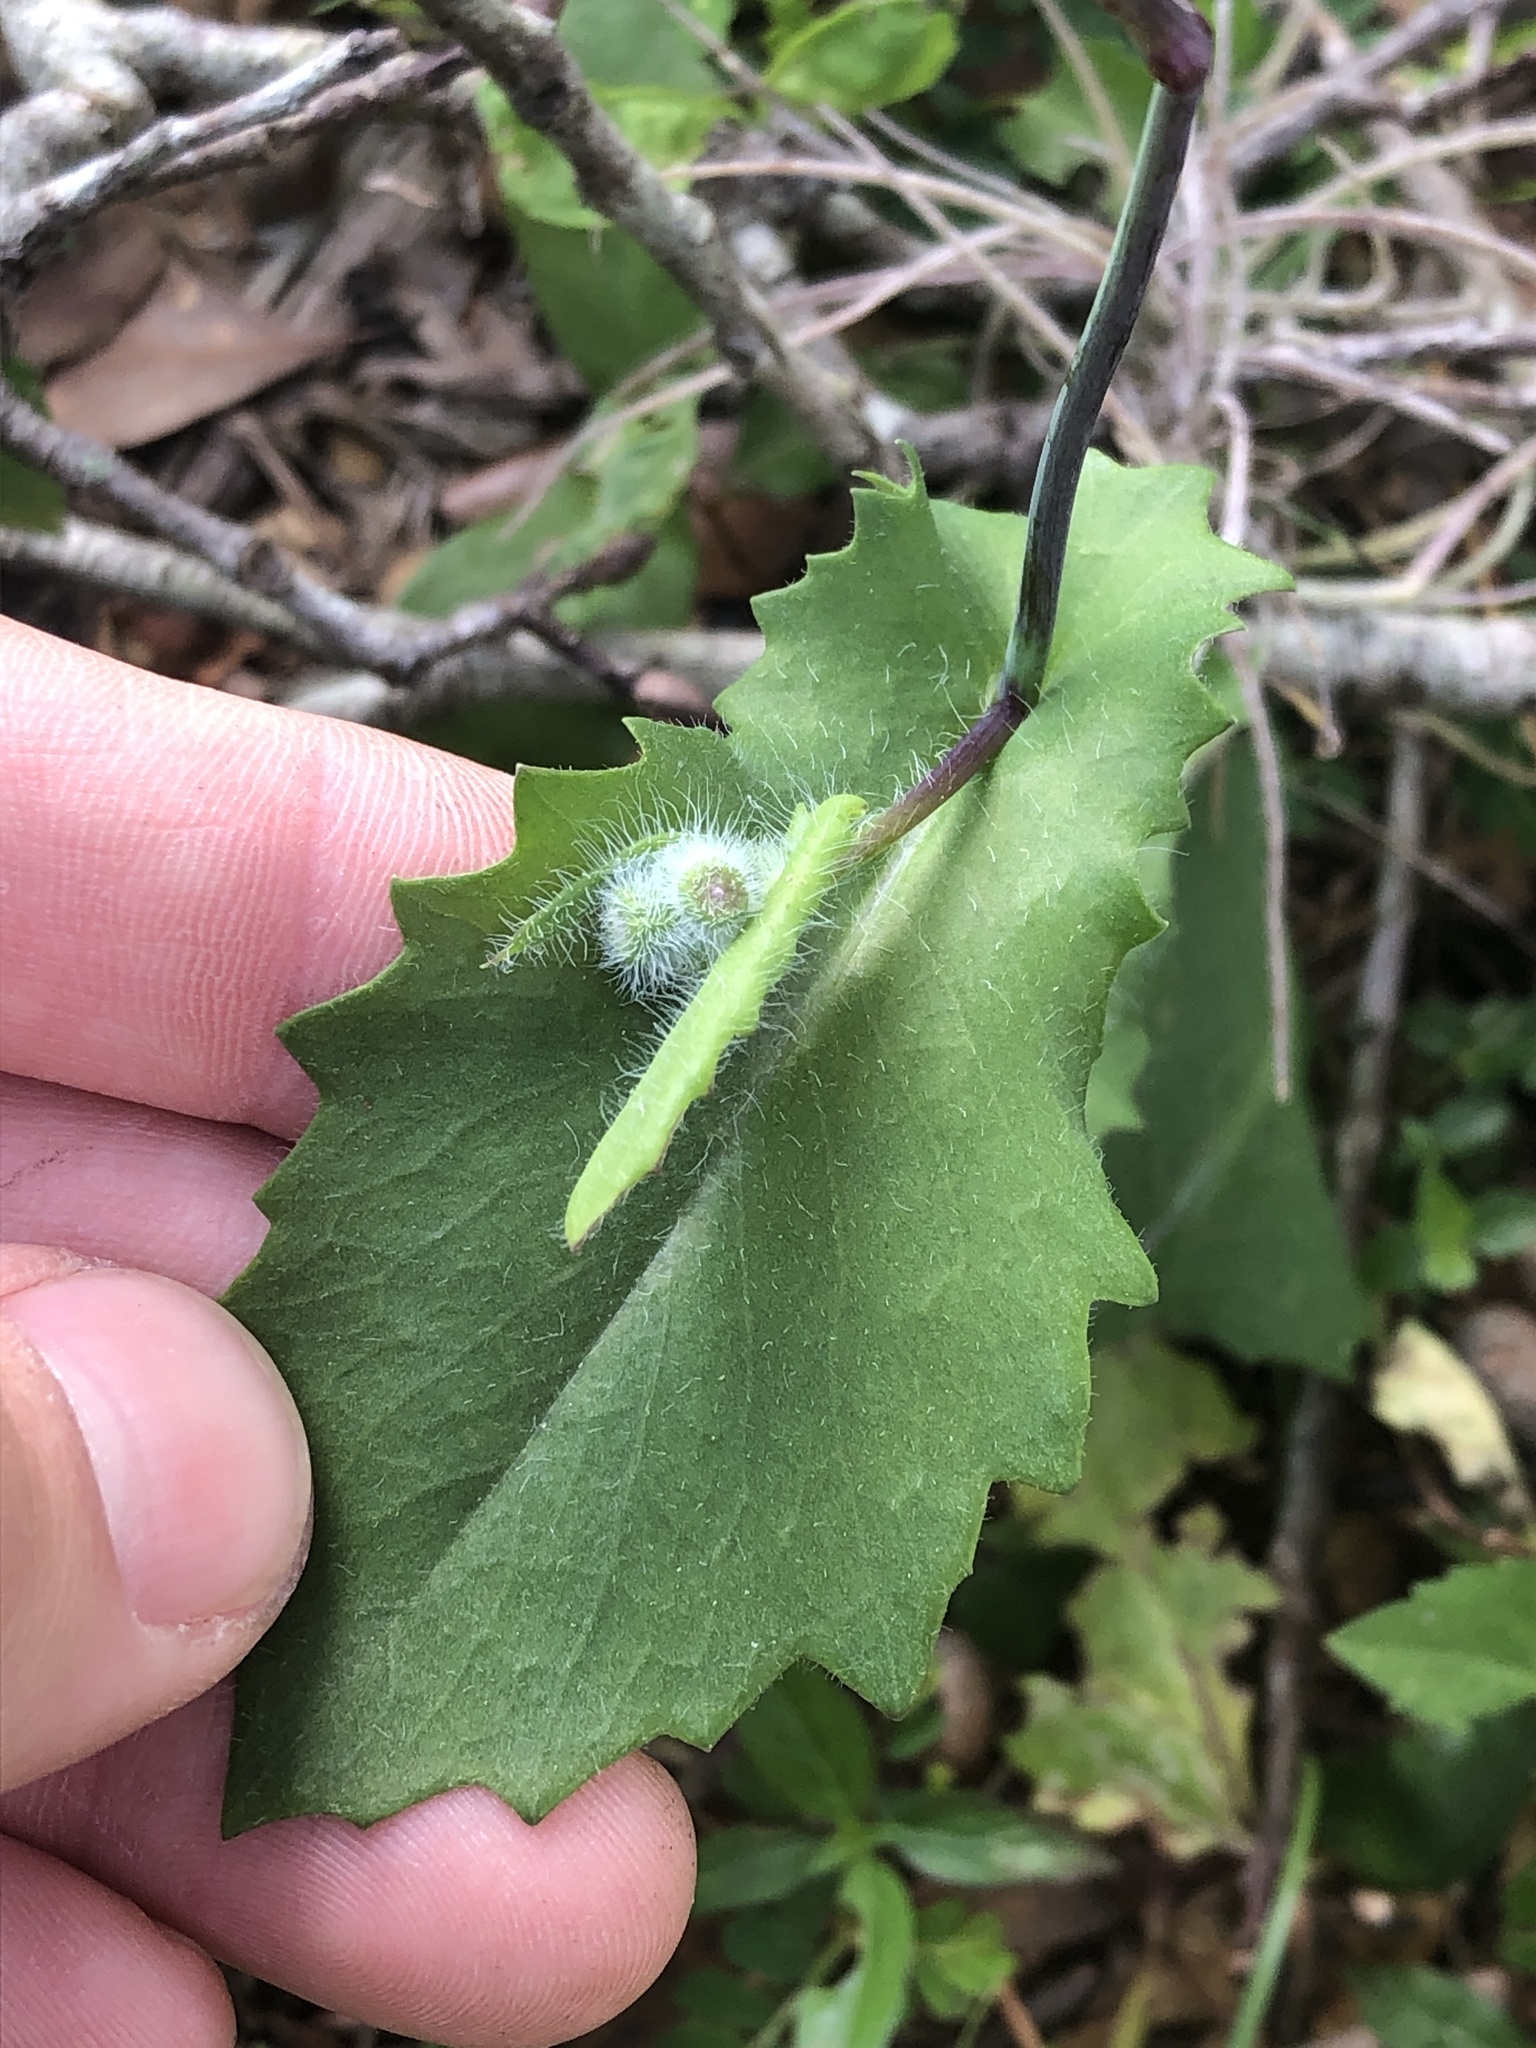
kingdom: Plantae
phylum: Tracheophyta
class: Magnoliopsida
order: Asterales
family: Asteraceae
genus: Emilia
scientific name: Emilia praetermissa
